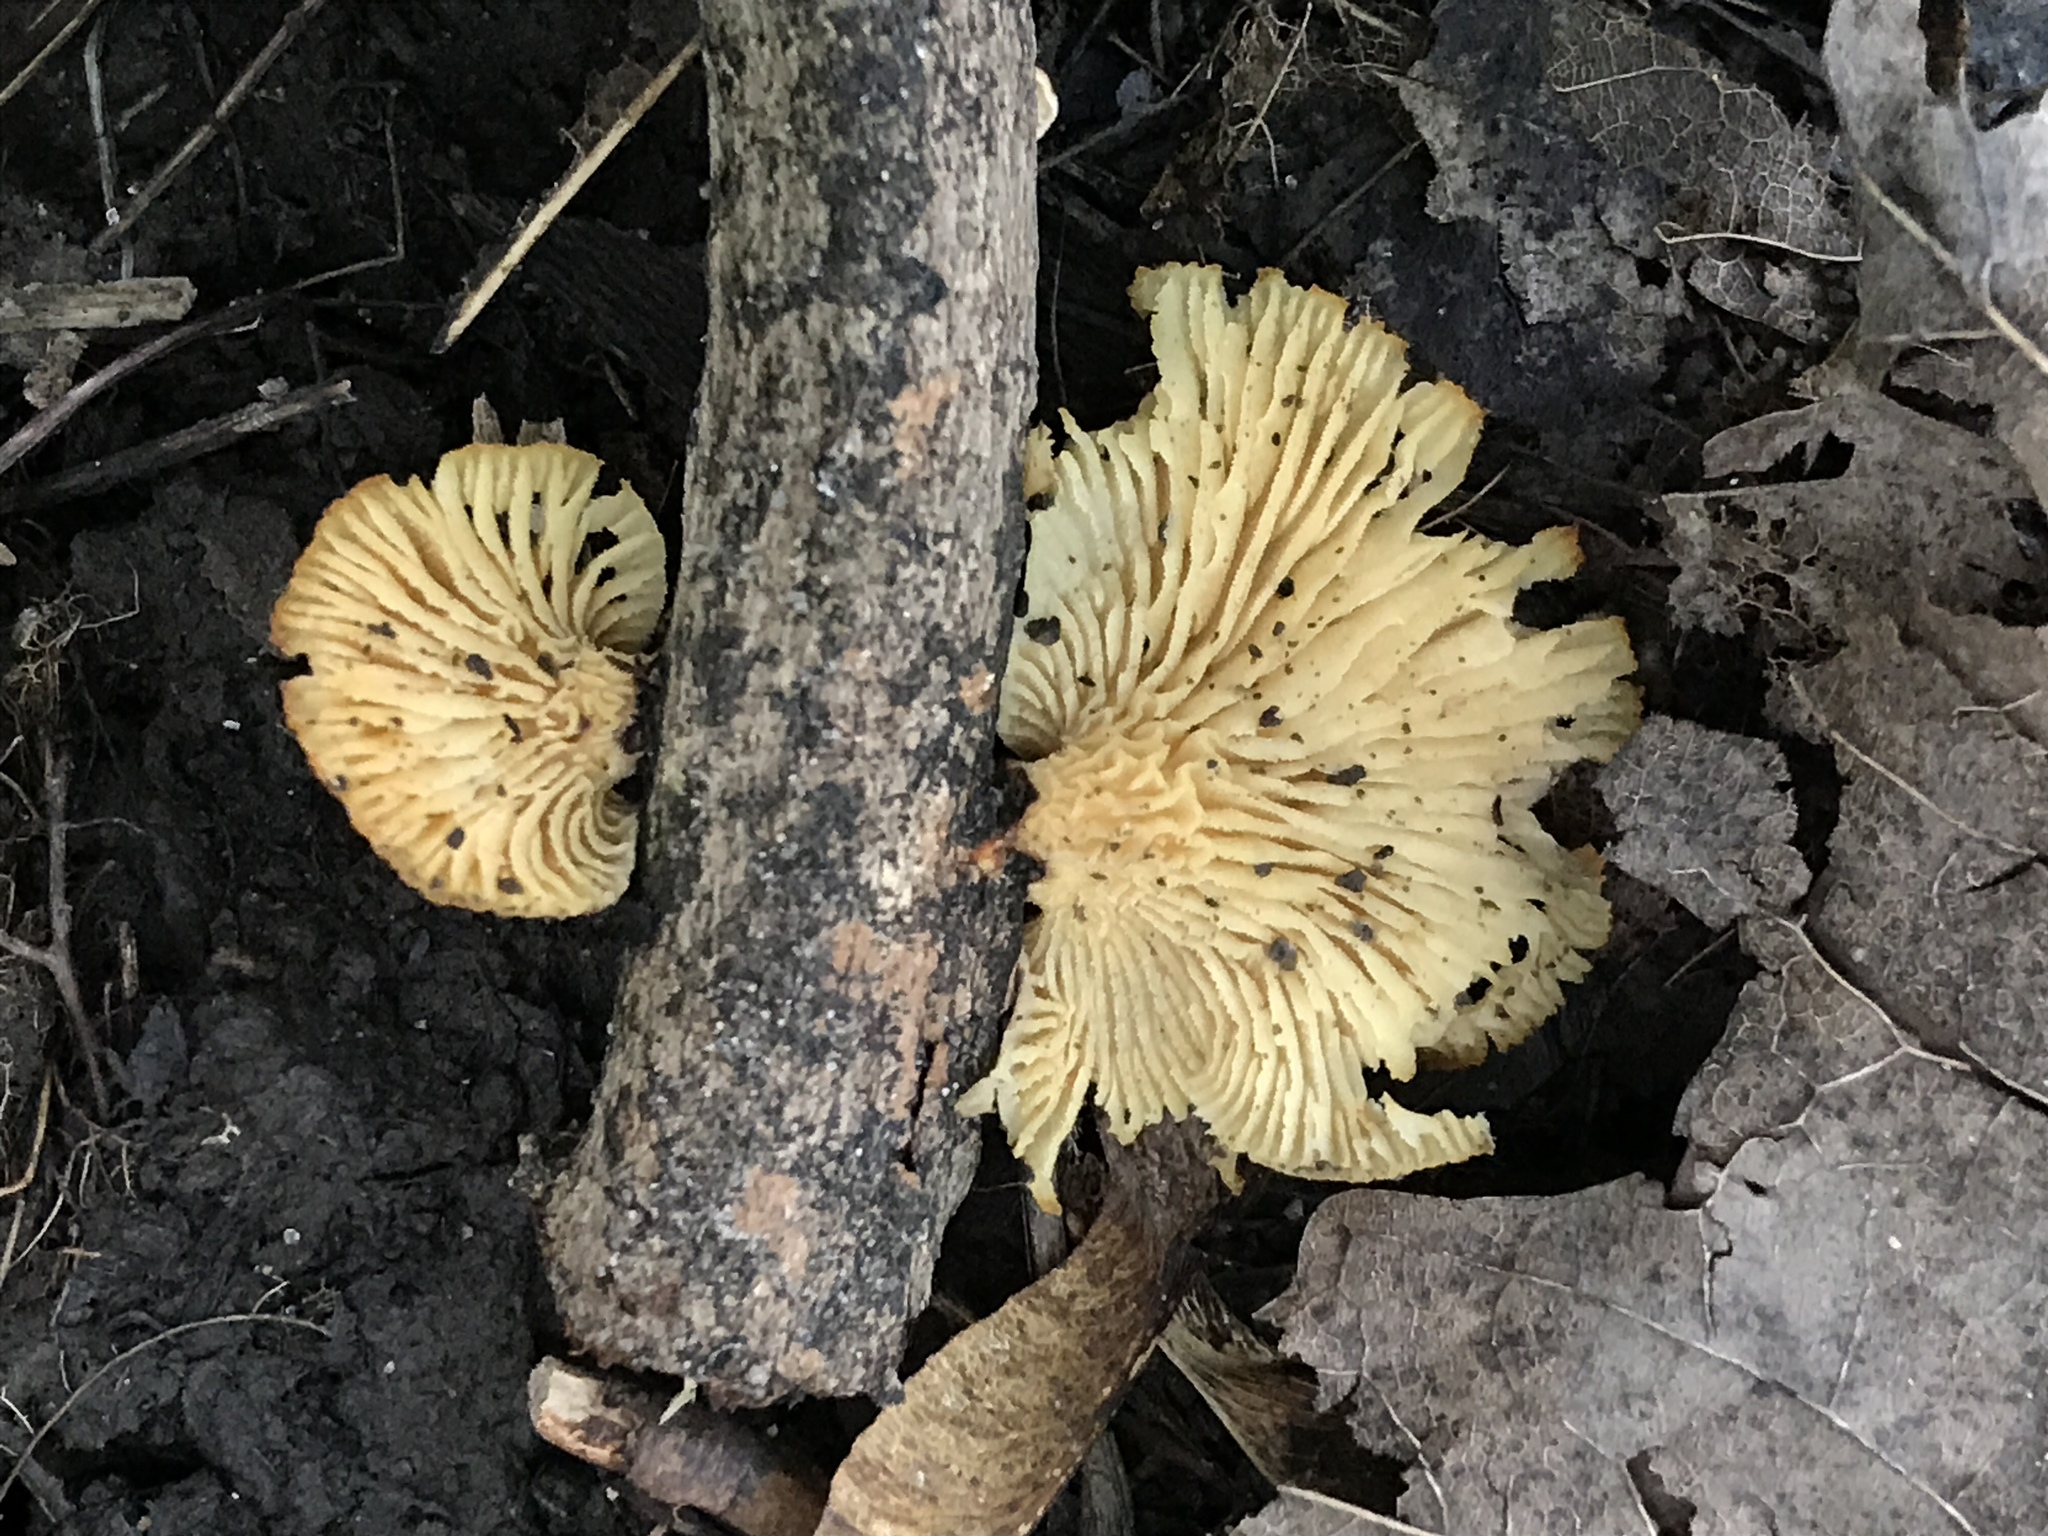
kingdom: Fungi
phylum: Basidiomycota
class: Agaricomycetes
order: Polyporales
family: Polyporaceae
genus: Neofavolus
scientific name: Neofavolus suavissimus
